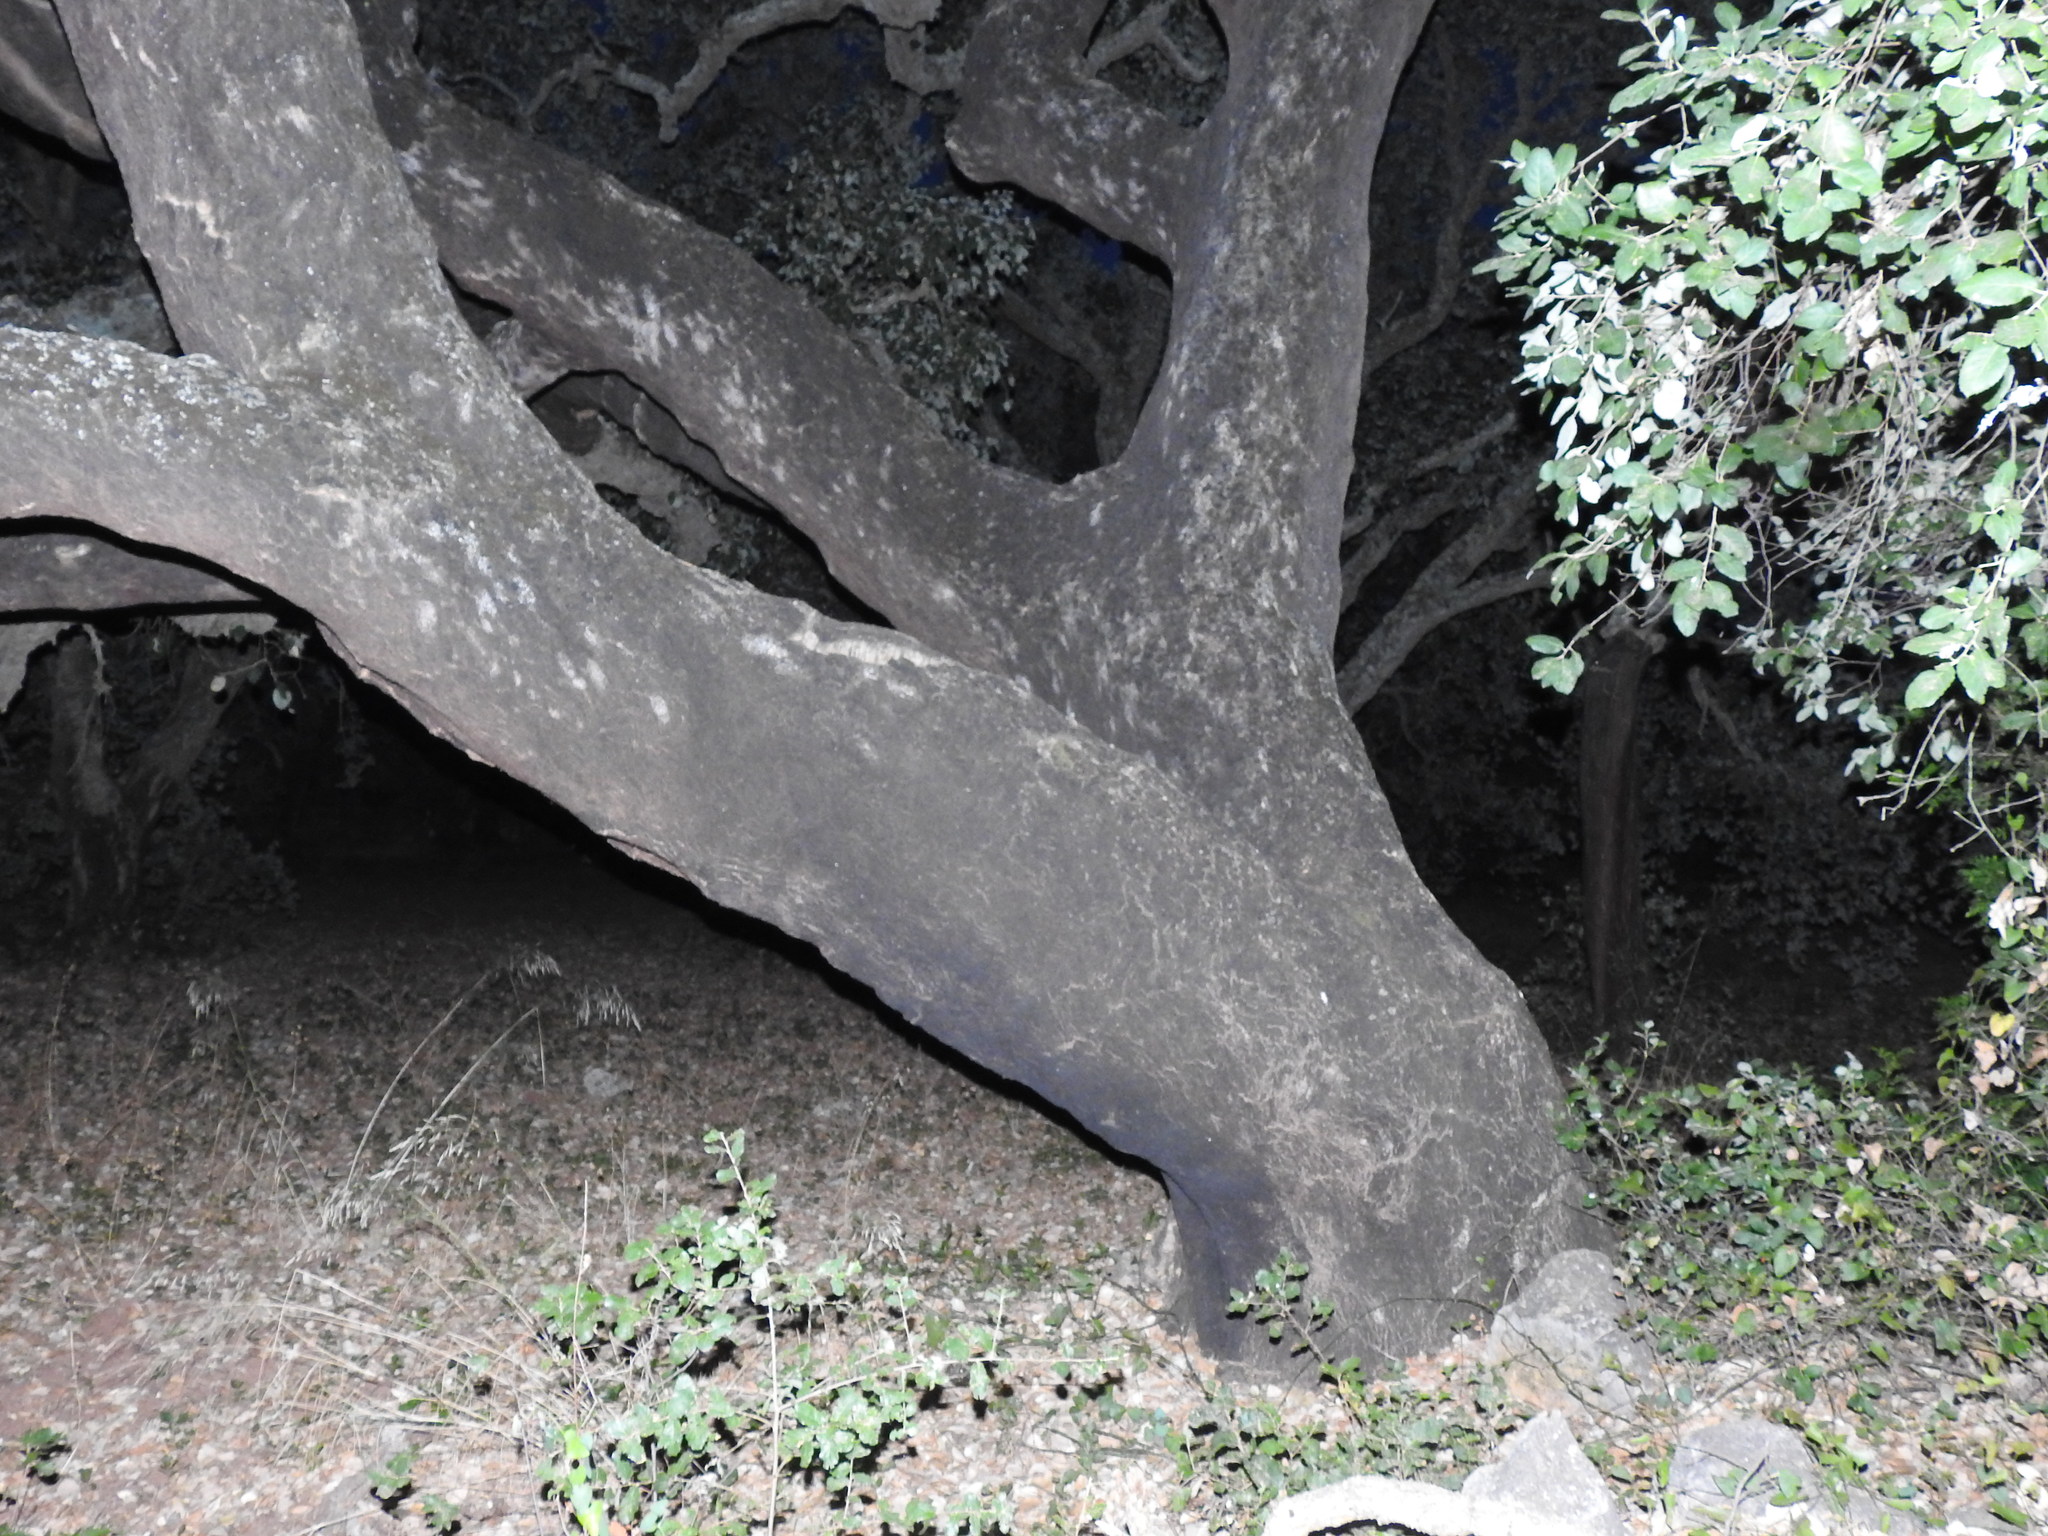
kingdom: Plantae
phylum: Tracheophyta
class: Magnoliopsida
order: Fagales
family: Fagaceae
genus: Quercus
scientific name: Quercus suber
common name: Cork oak
